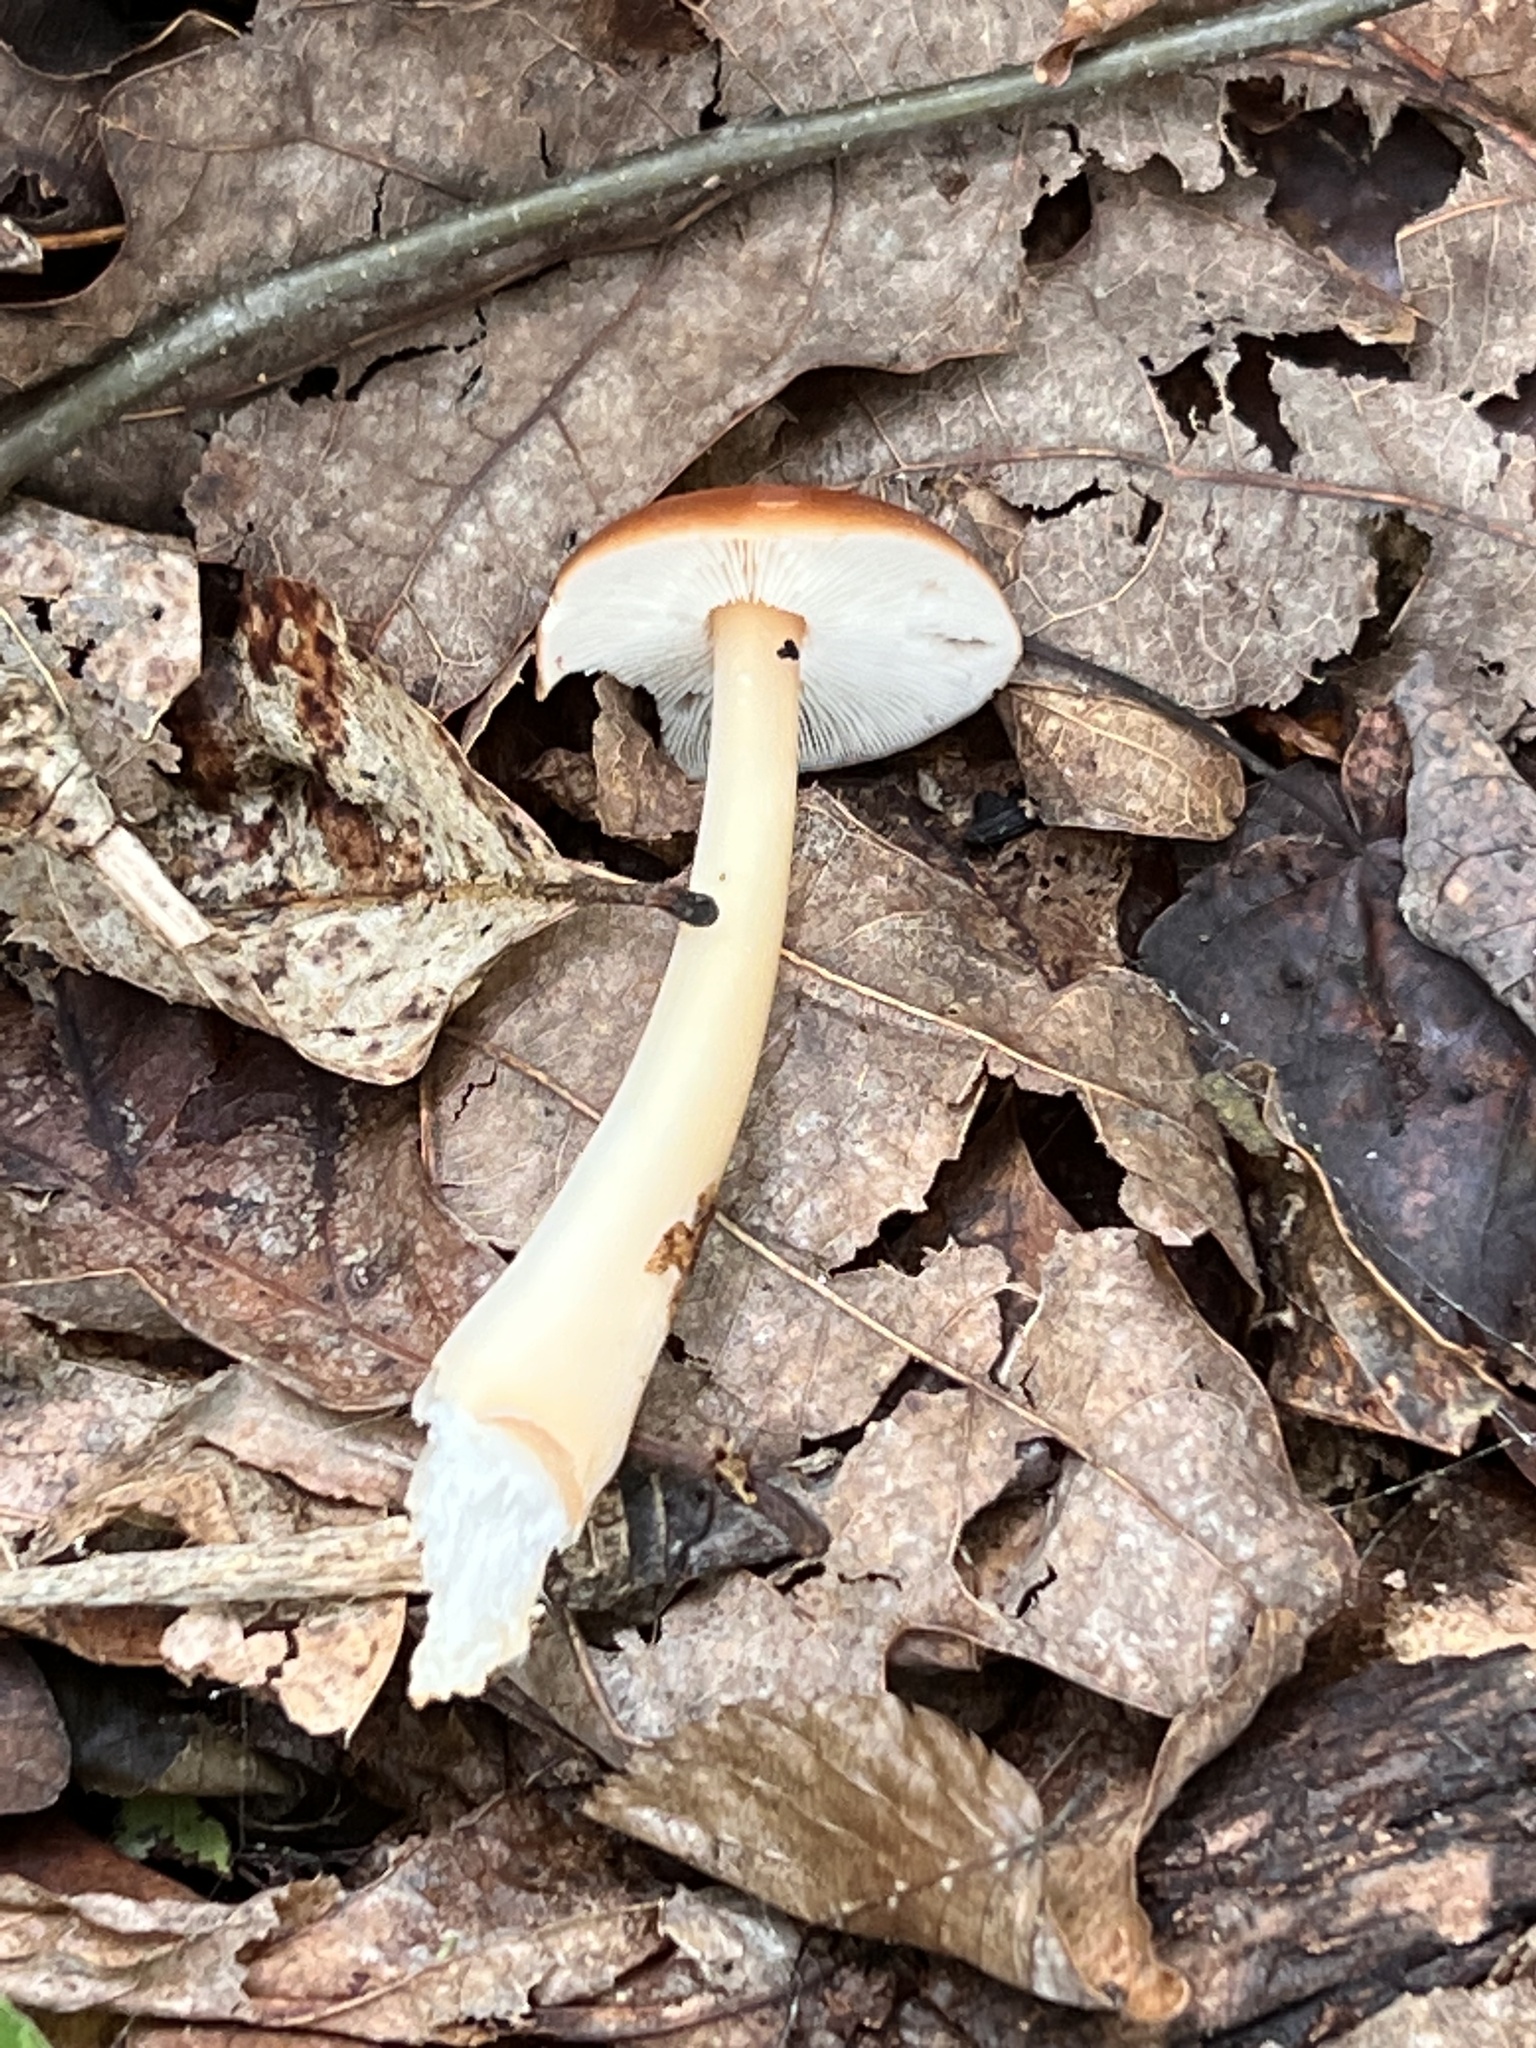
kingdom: Fungi
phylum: Basidiomycota
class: Agaricomycetes
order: Agaricales
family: Omphalotaceae
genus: Gymnopus
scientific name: Gymnopus dryophilus
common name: Penny top
